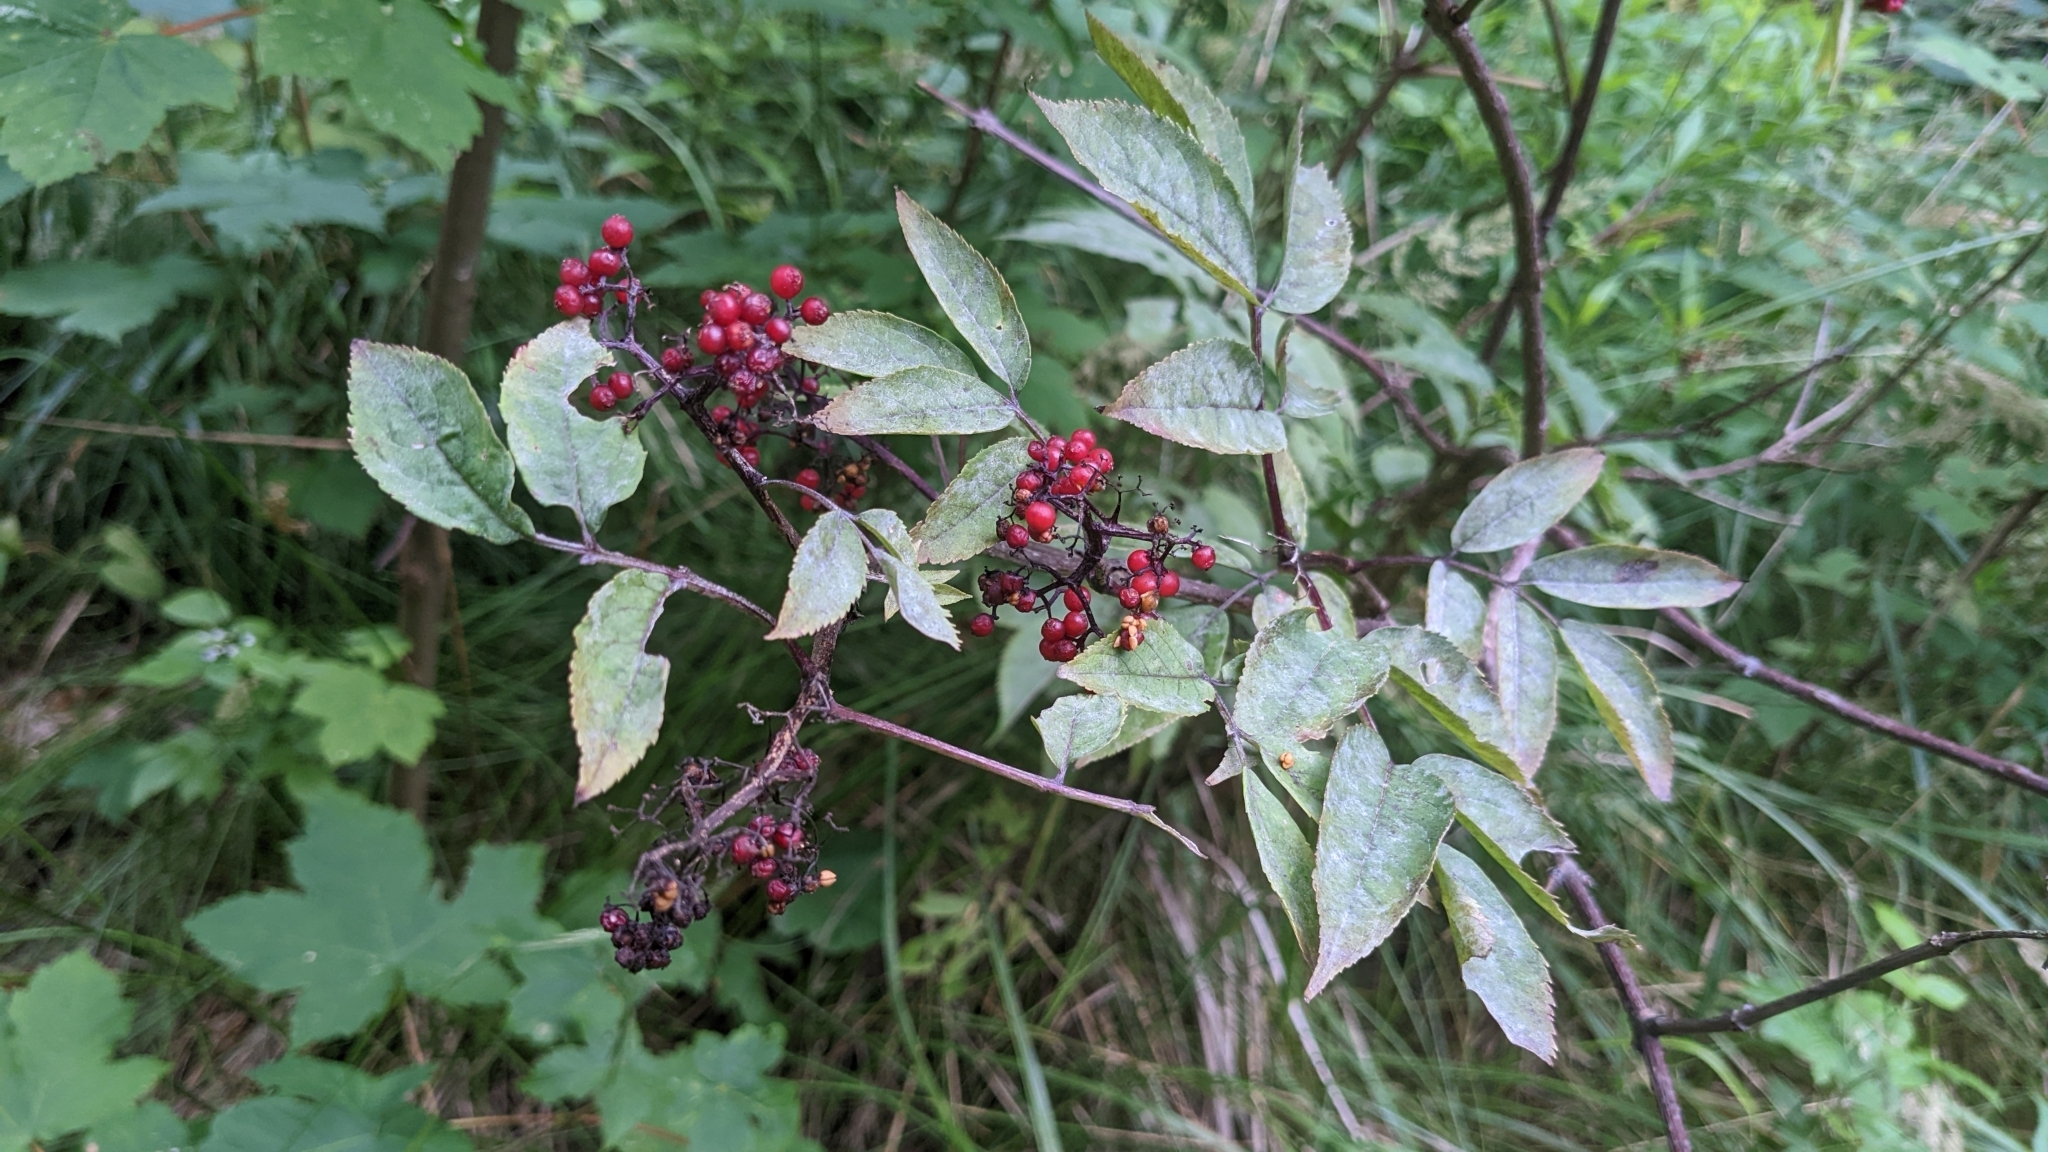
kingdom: Plantae
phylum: Tracheophyta
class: Magnoliopsida
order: Dipsacales
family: Viburnaceae
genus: Sambucus
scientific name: Sambucus racemosa
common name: Red-berried elder
